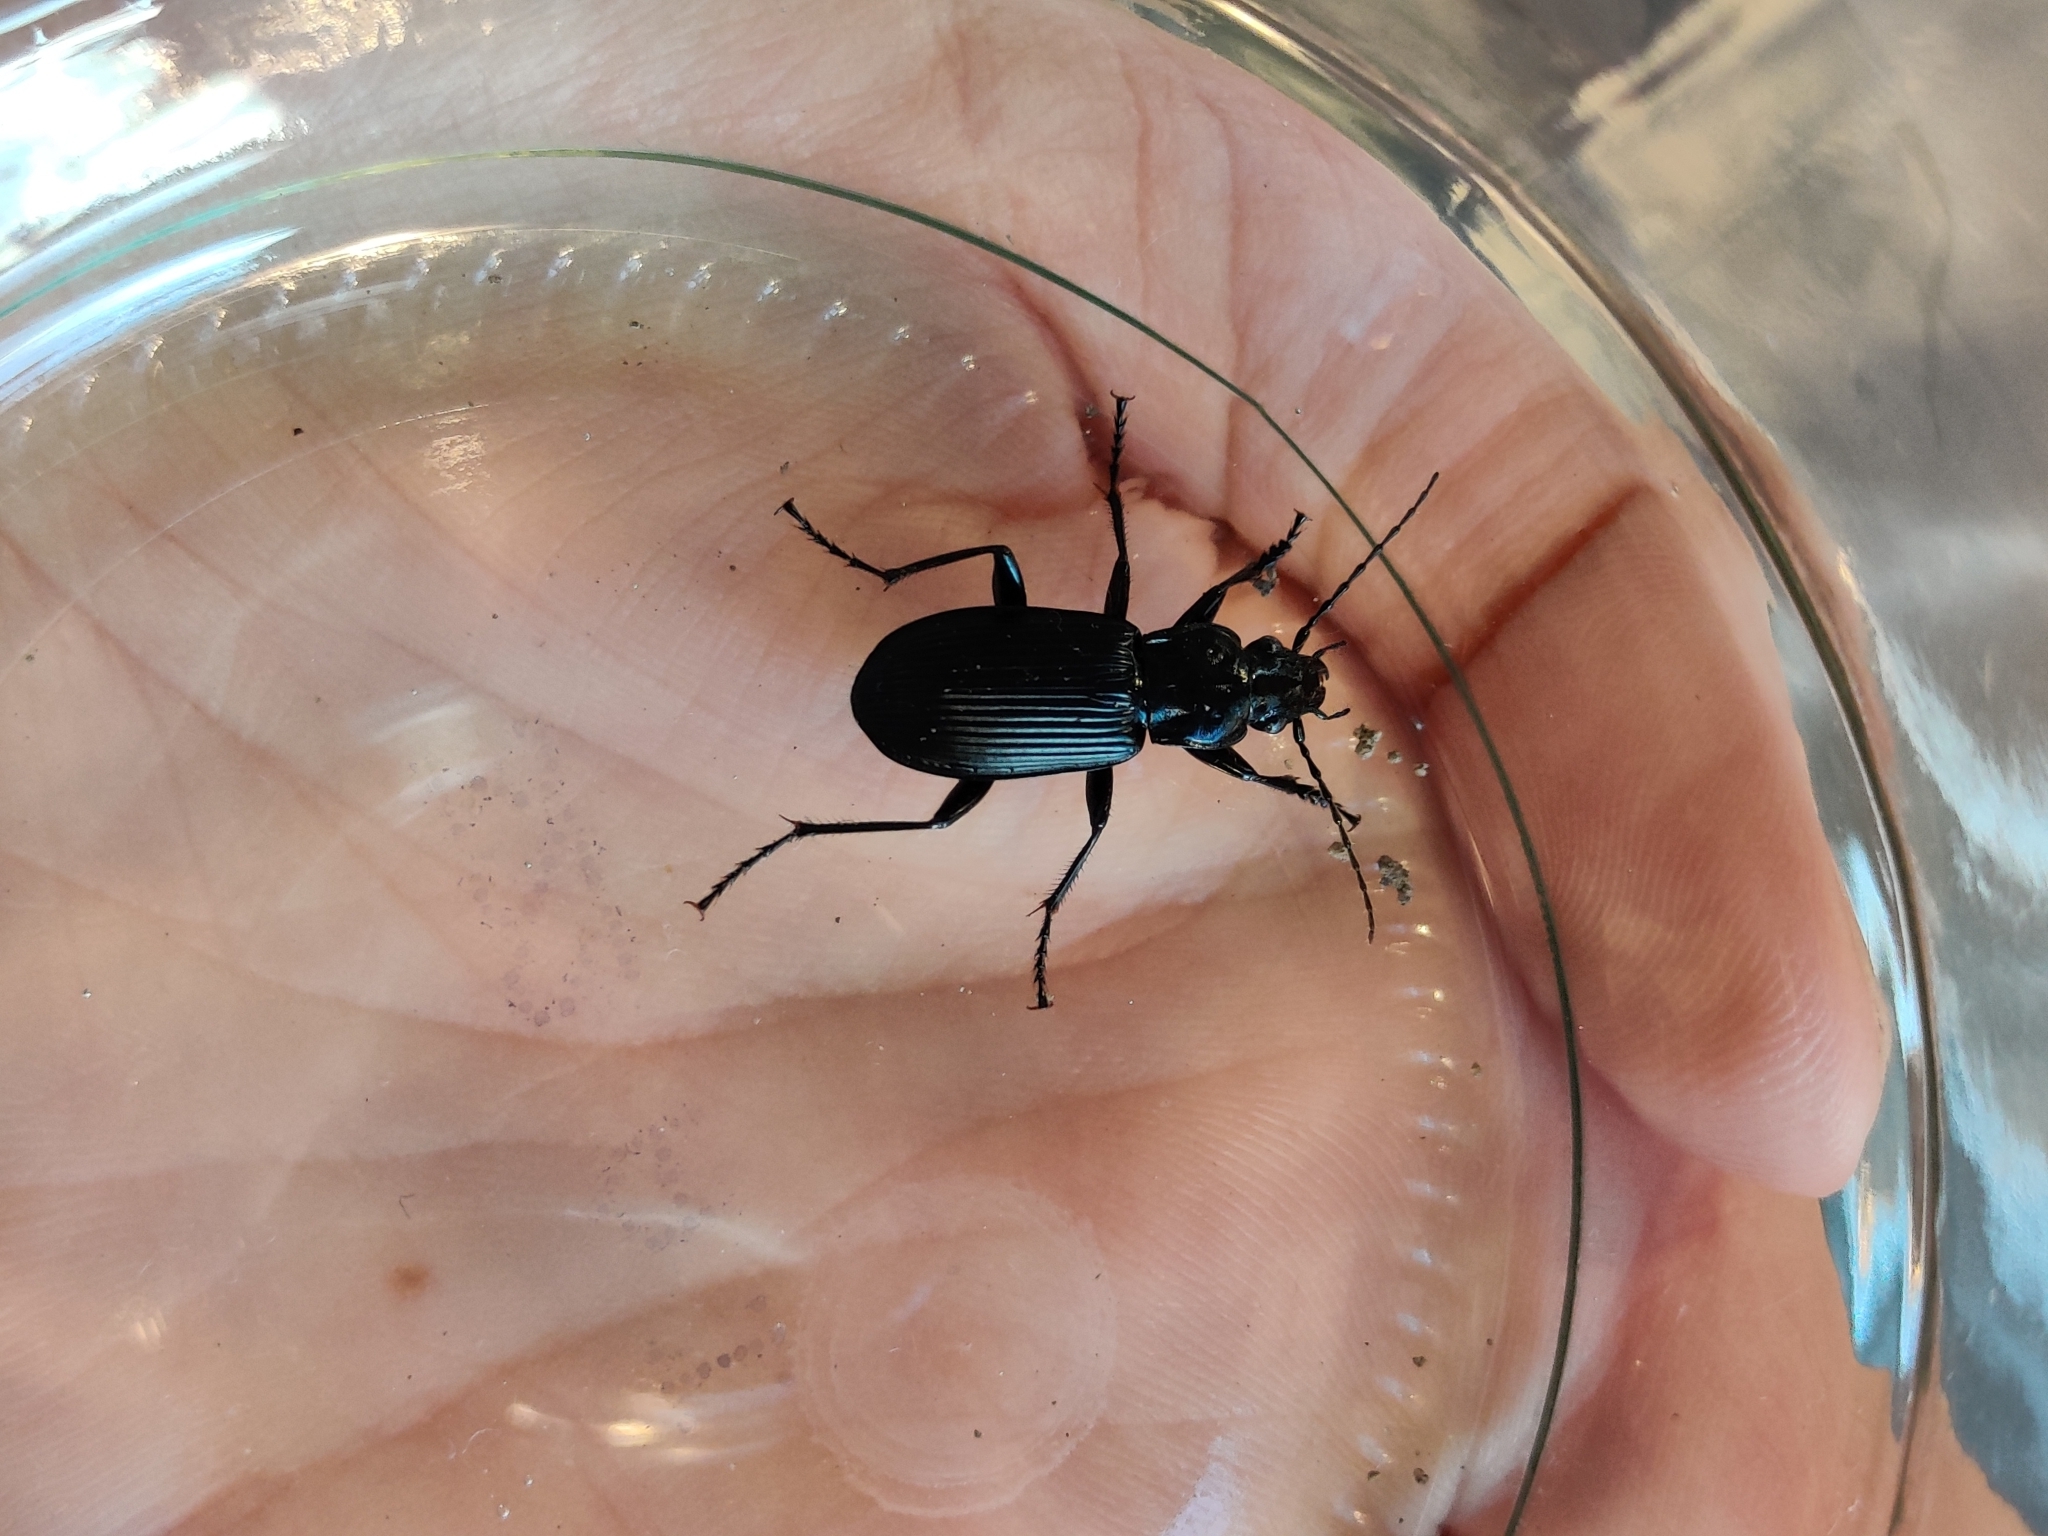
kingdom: Animalia
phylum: Arthropoda
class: Insecta
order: Coleoptera
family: Carabidae
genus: Pterostichus
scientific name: Pterostichus niger
